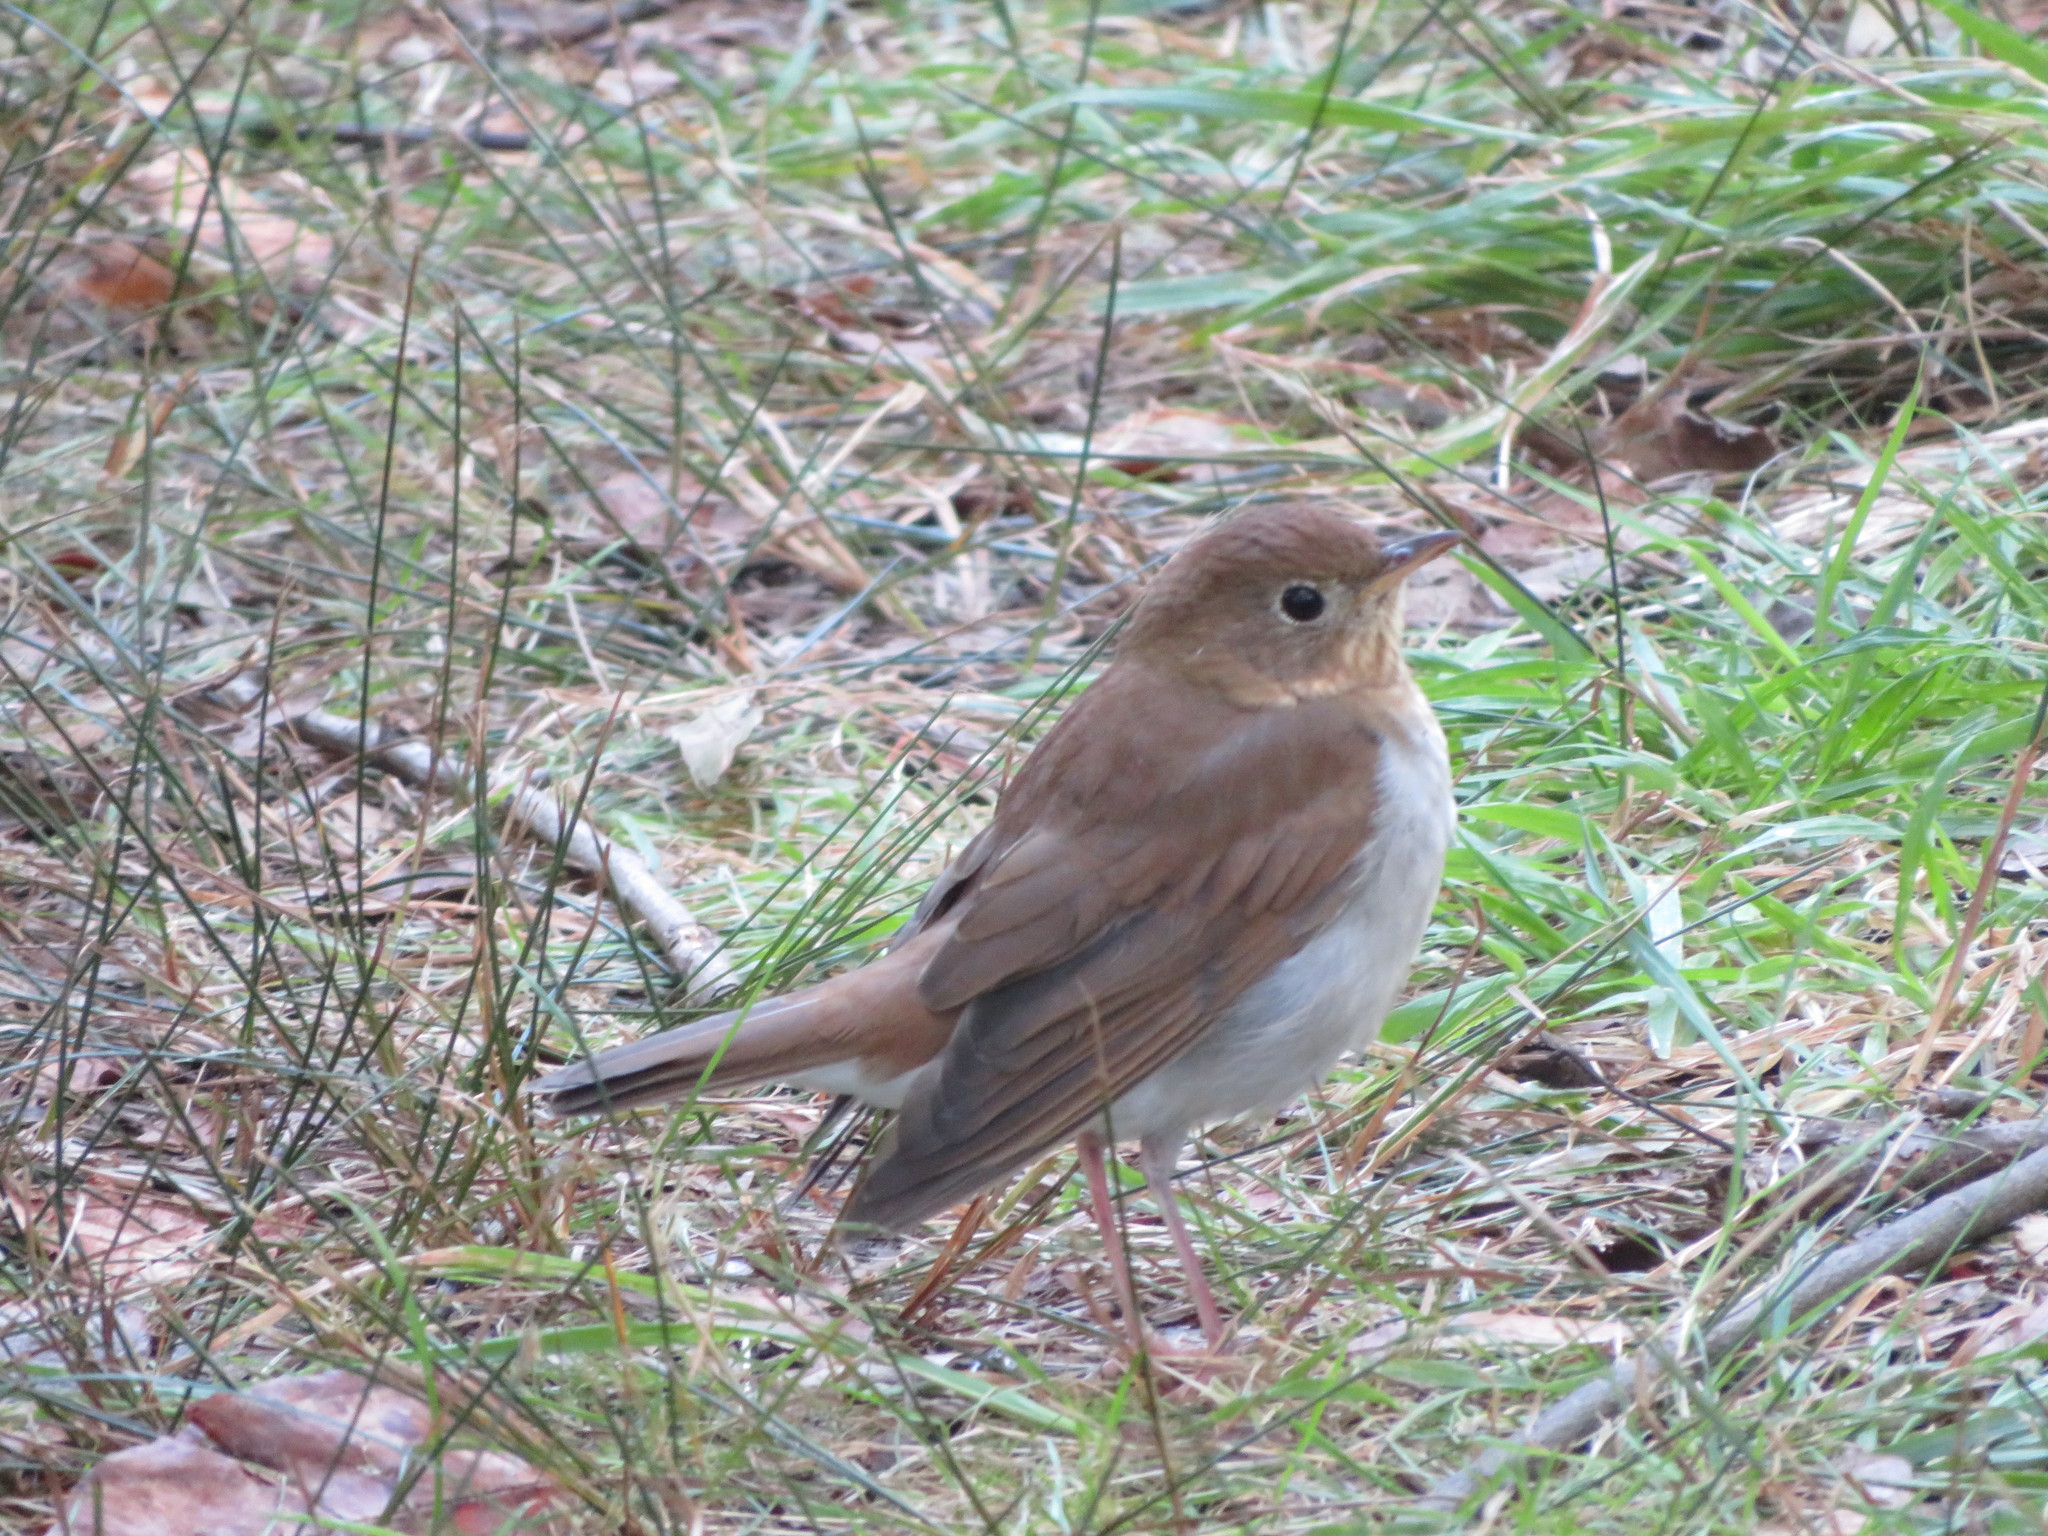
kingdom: Animalia
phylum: Chordata
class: Aves
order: Passeriformes
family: Turdidae
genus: Catharus
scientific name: Catharus fuscescens
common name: Veery
